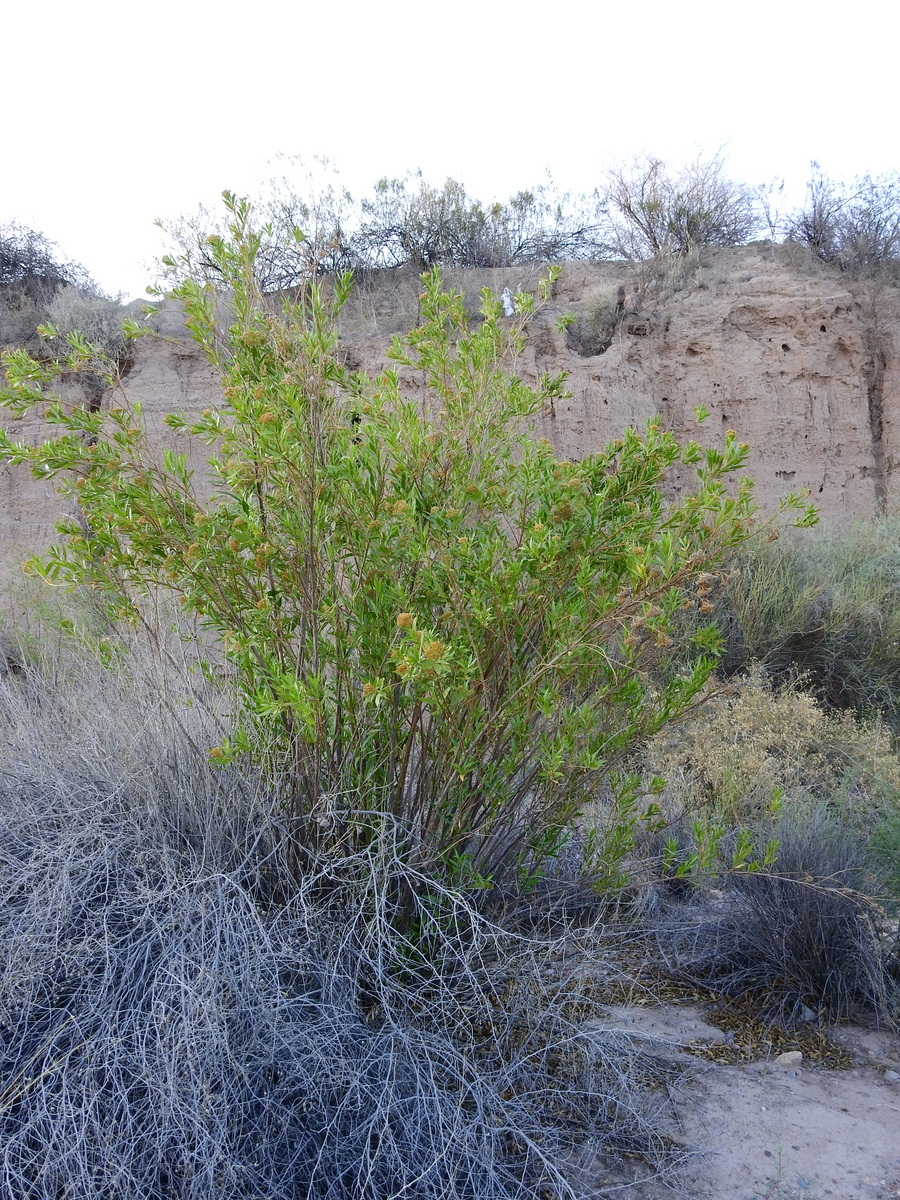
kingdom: Plantae
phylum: Tracheophyta
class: Magnoliopsida
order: Asterales
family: Asteraceae
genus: Tessaria
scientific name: Tessaria dodonaeifolia
